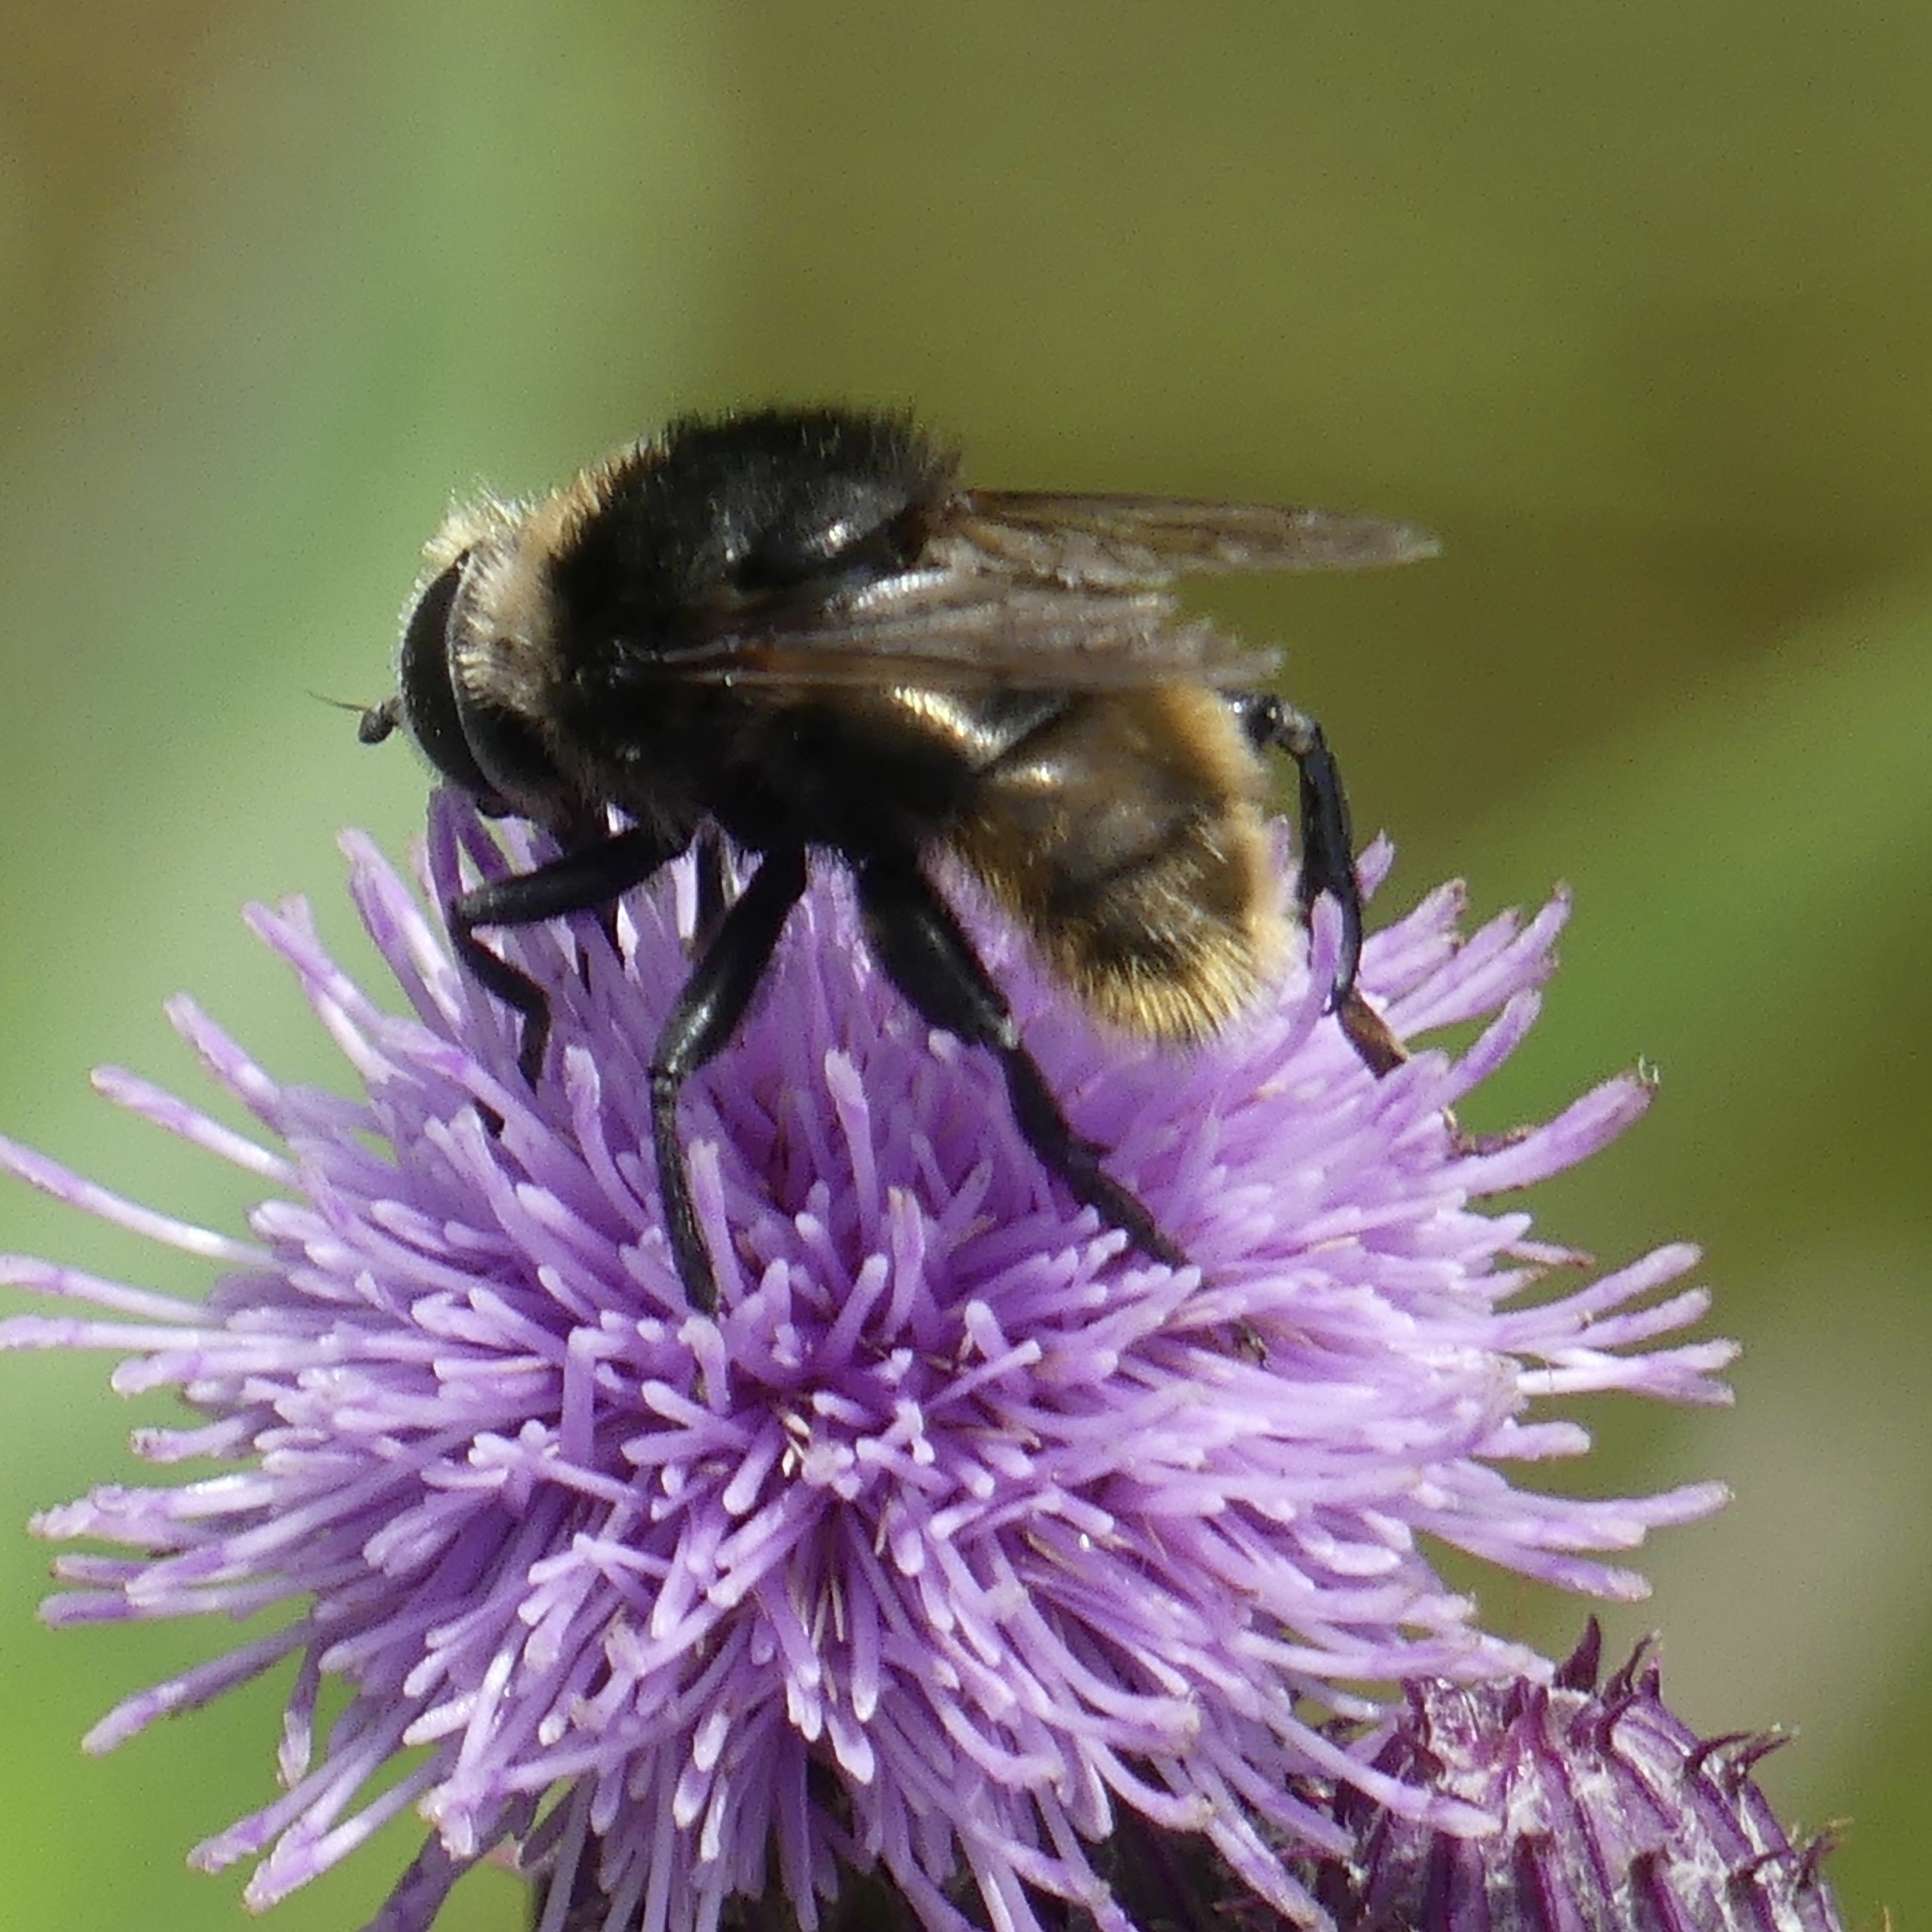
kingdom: Animalia
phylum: Arthropoda
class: Insecta
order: Diptera
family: Syrphidae
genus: Merodon
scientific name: Merodon equestris
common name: Greater bulb-fly
